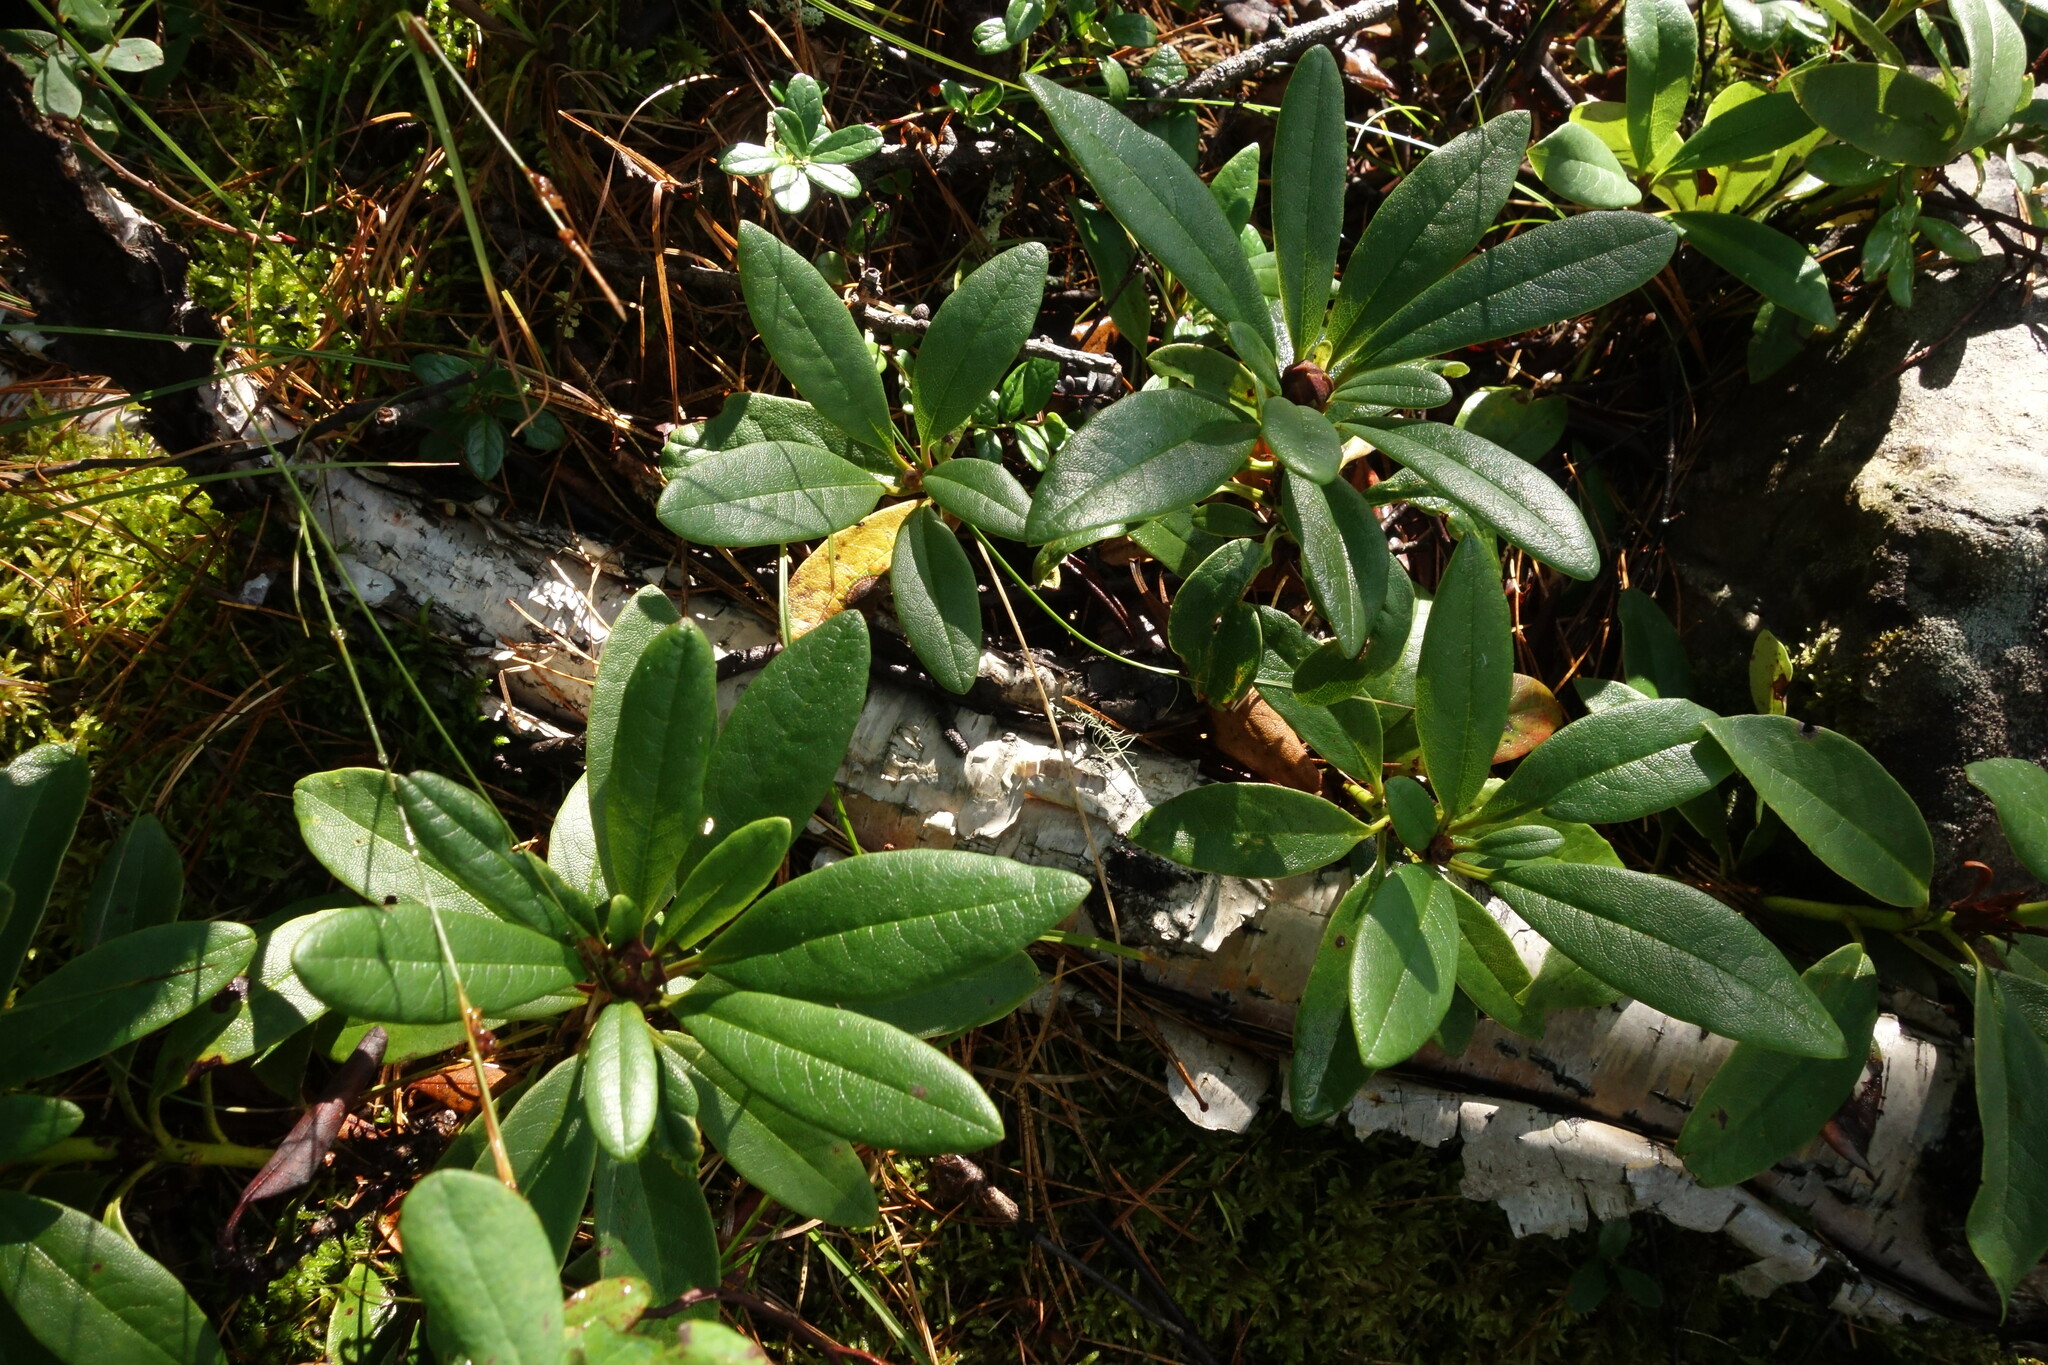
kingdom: Plantae
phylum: Tracheophyta
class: Magnoliopsida
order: Ericales
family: Ericaceae
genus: Rhododendron
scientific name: Rhododendron aureum
